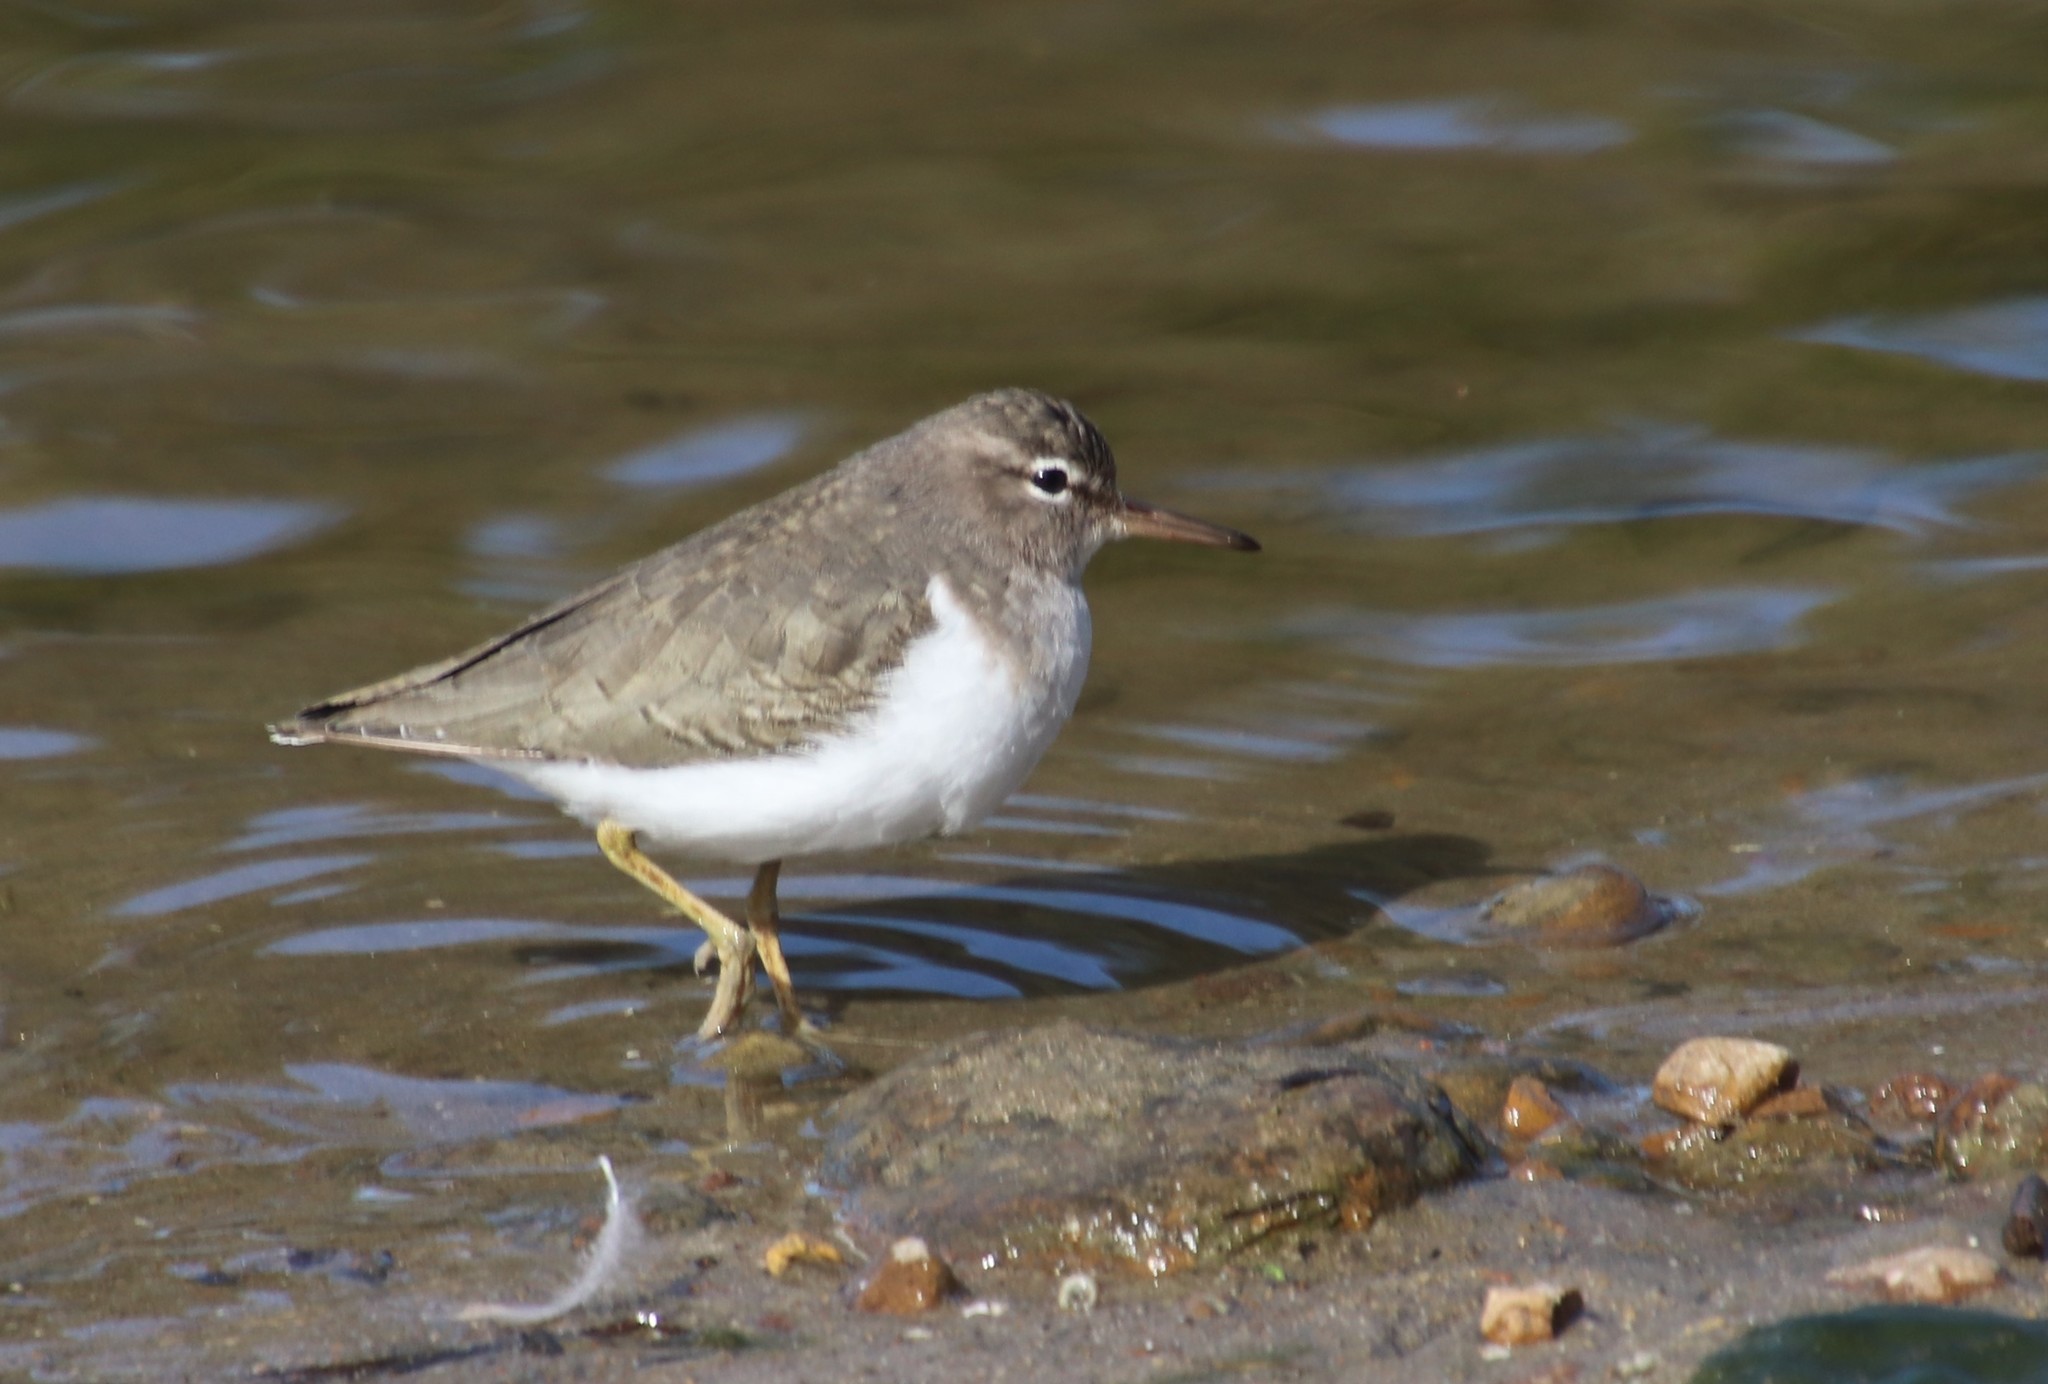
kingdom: Animalia
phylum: Chordata
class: Aves
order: Charadriiformes
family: Scolopacidae
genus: Actitis
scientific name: Actitis macularius
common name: Spotted sandpiper
